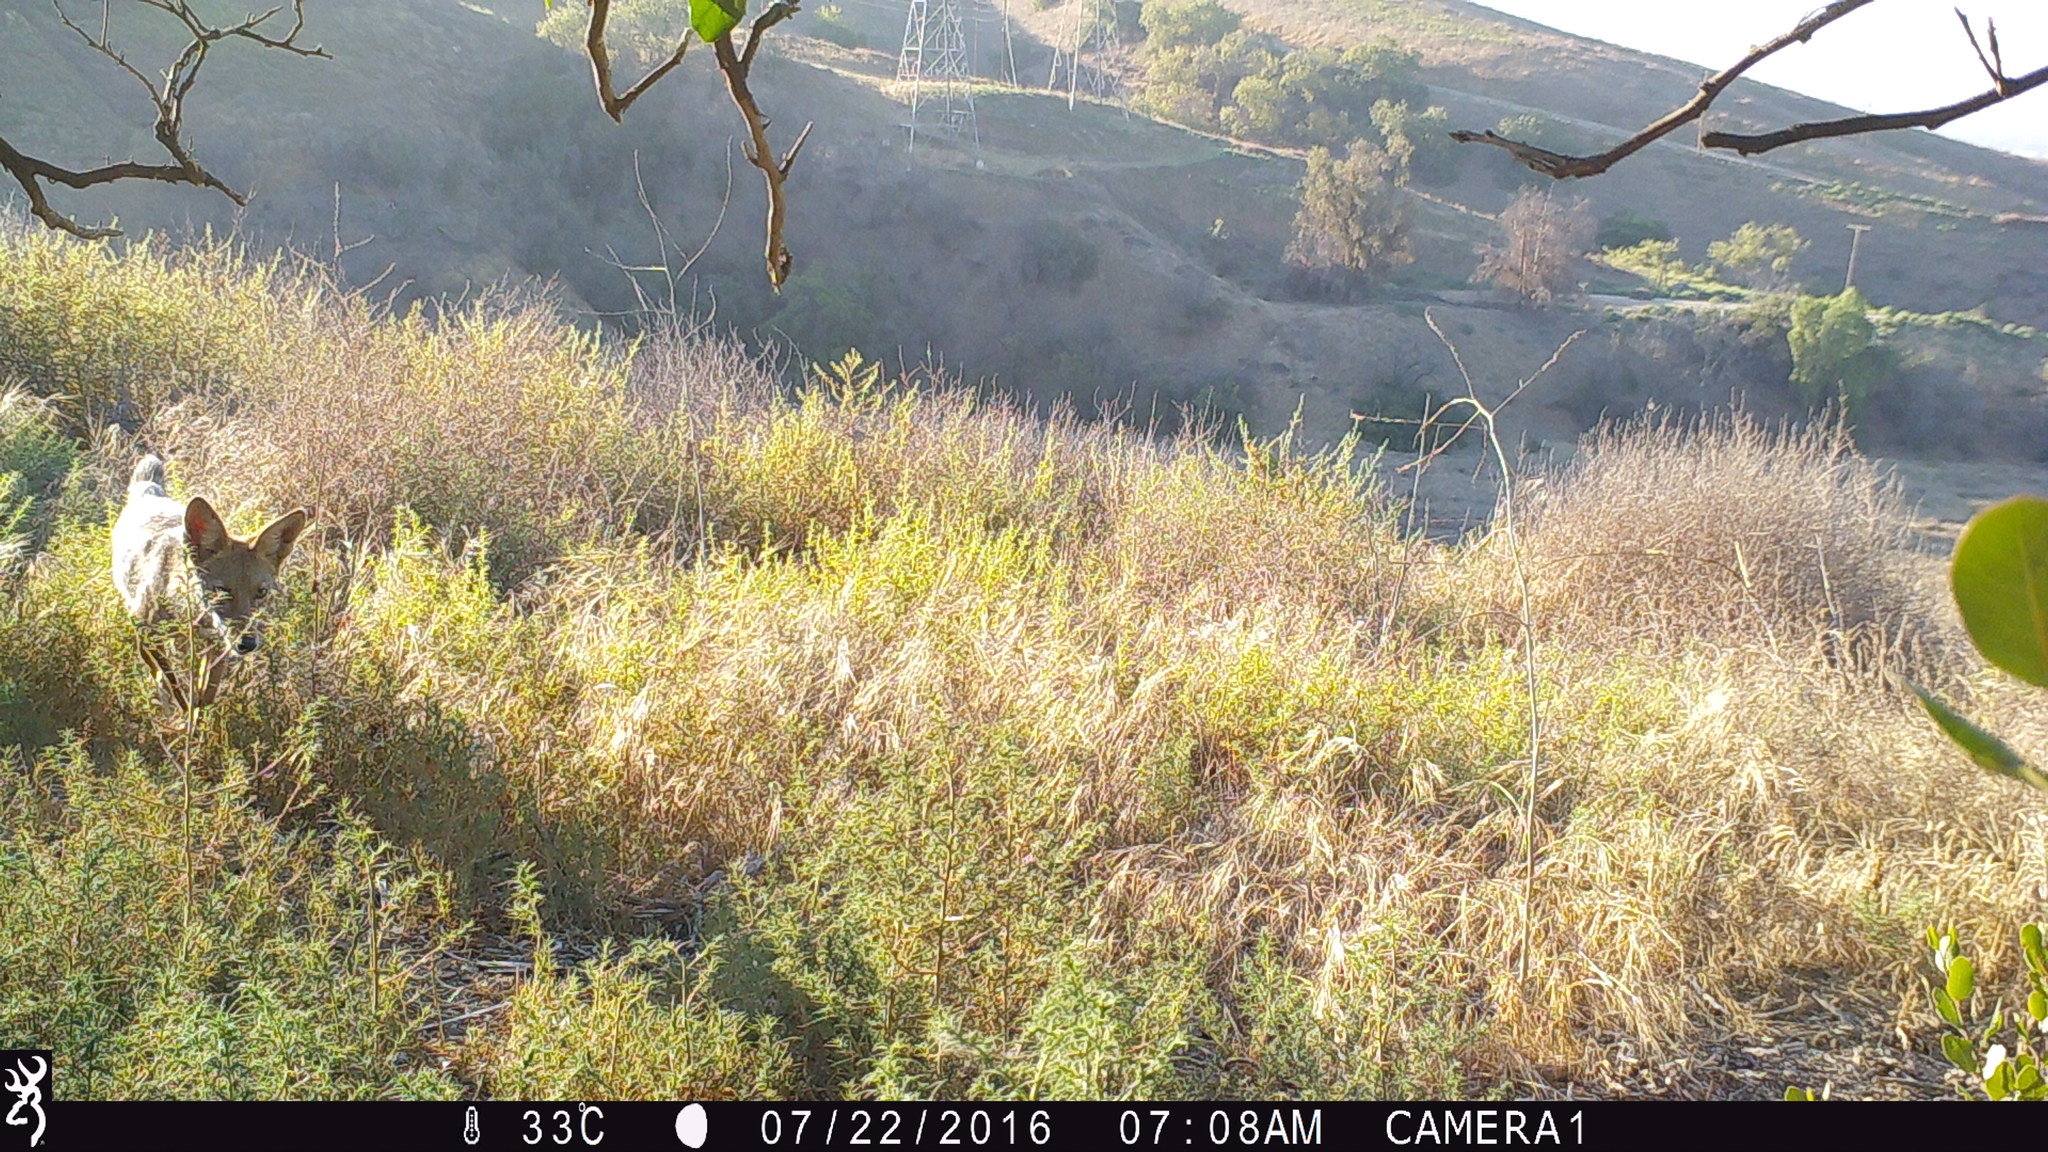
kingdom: Animalia
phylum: Chordata
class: Mammalia
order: Carnivora
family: Canidae
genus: Canis
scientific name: Canis latrans
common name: Coyote
